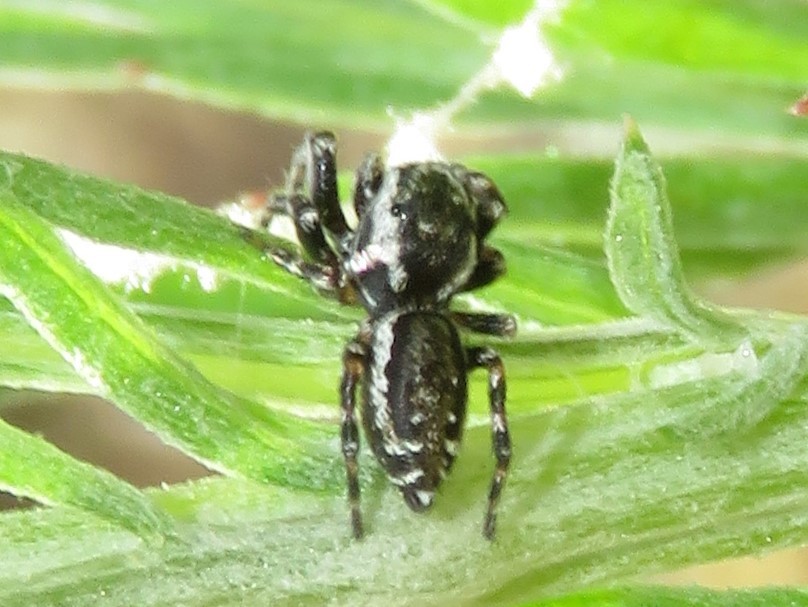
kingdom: Animalia
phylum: Arthropoda
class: Arachnida
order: Araneae
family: Salticidae
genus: Pelegrina
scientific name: Pelegrina galathea
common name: Jumping spiders
